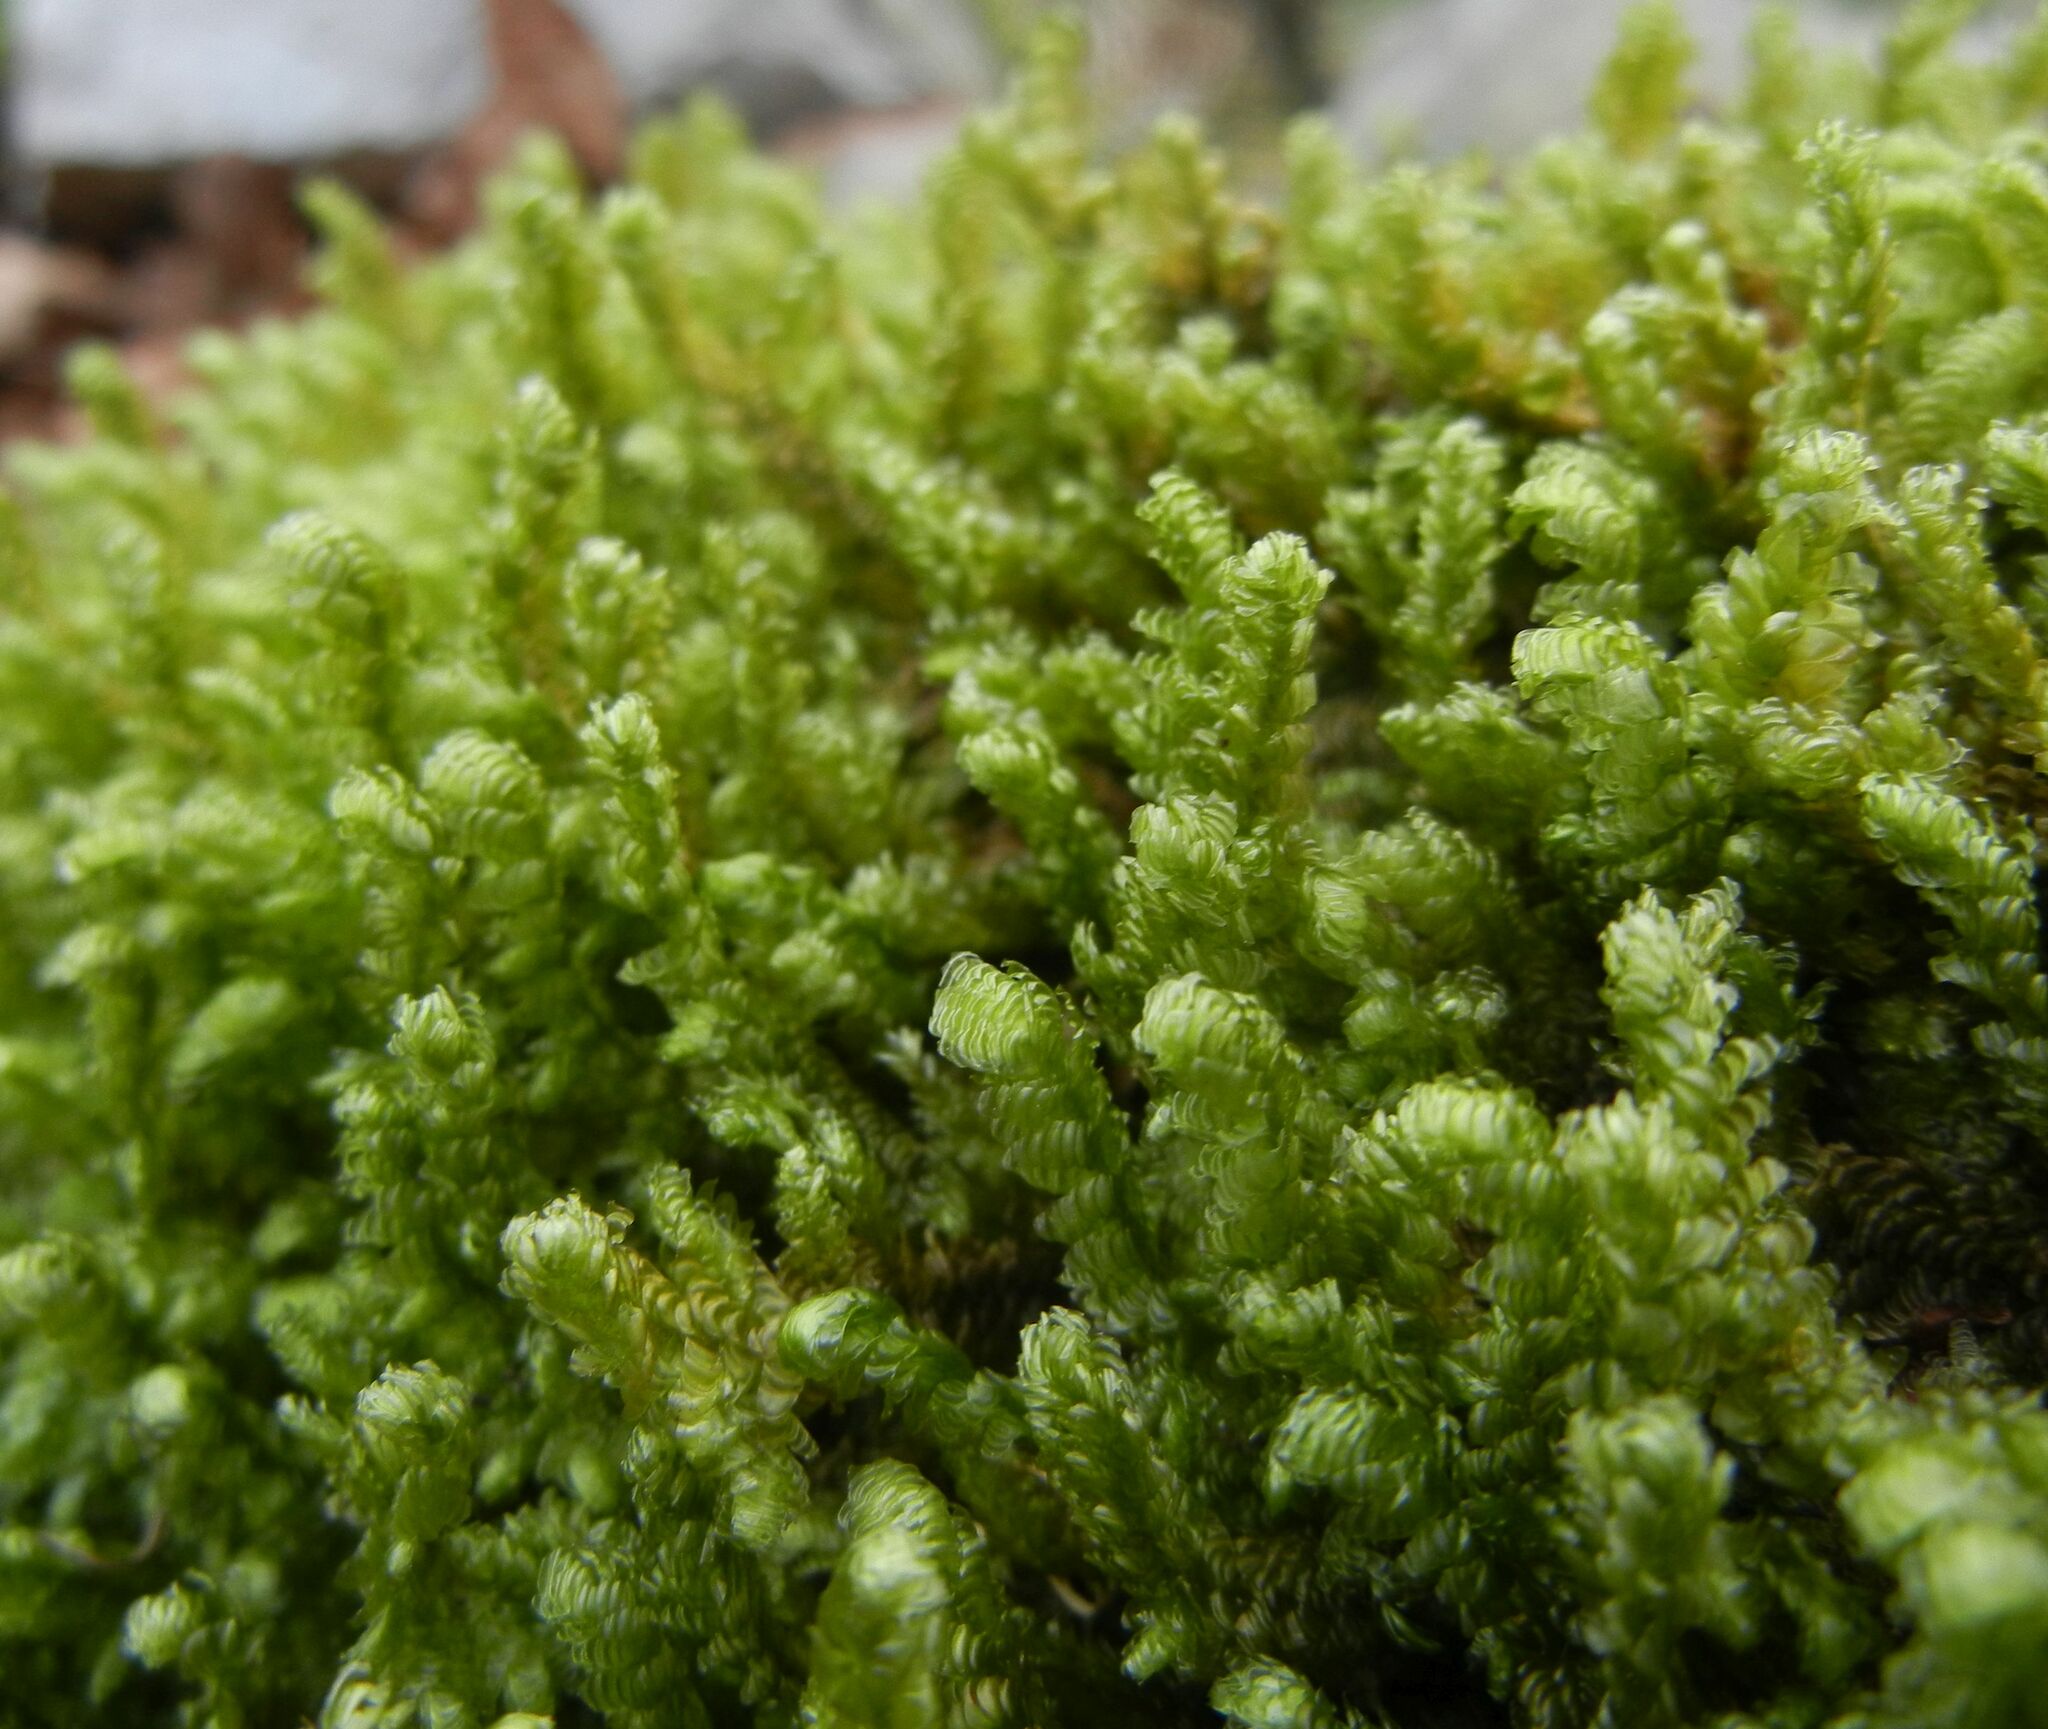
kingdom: Plantae
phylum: Bryophyta
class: Bryopsida
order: Hypnales
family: Neckeraceae
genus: Exsertotheca
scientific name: Exsertotheca crispa
